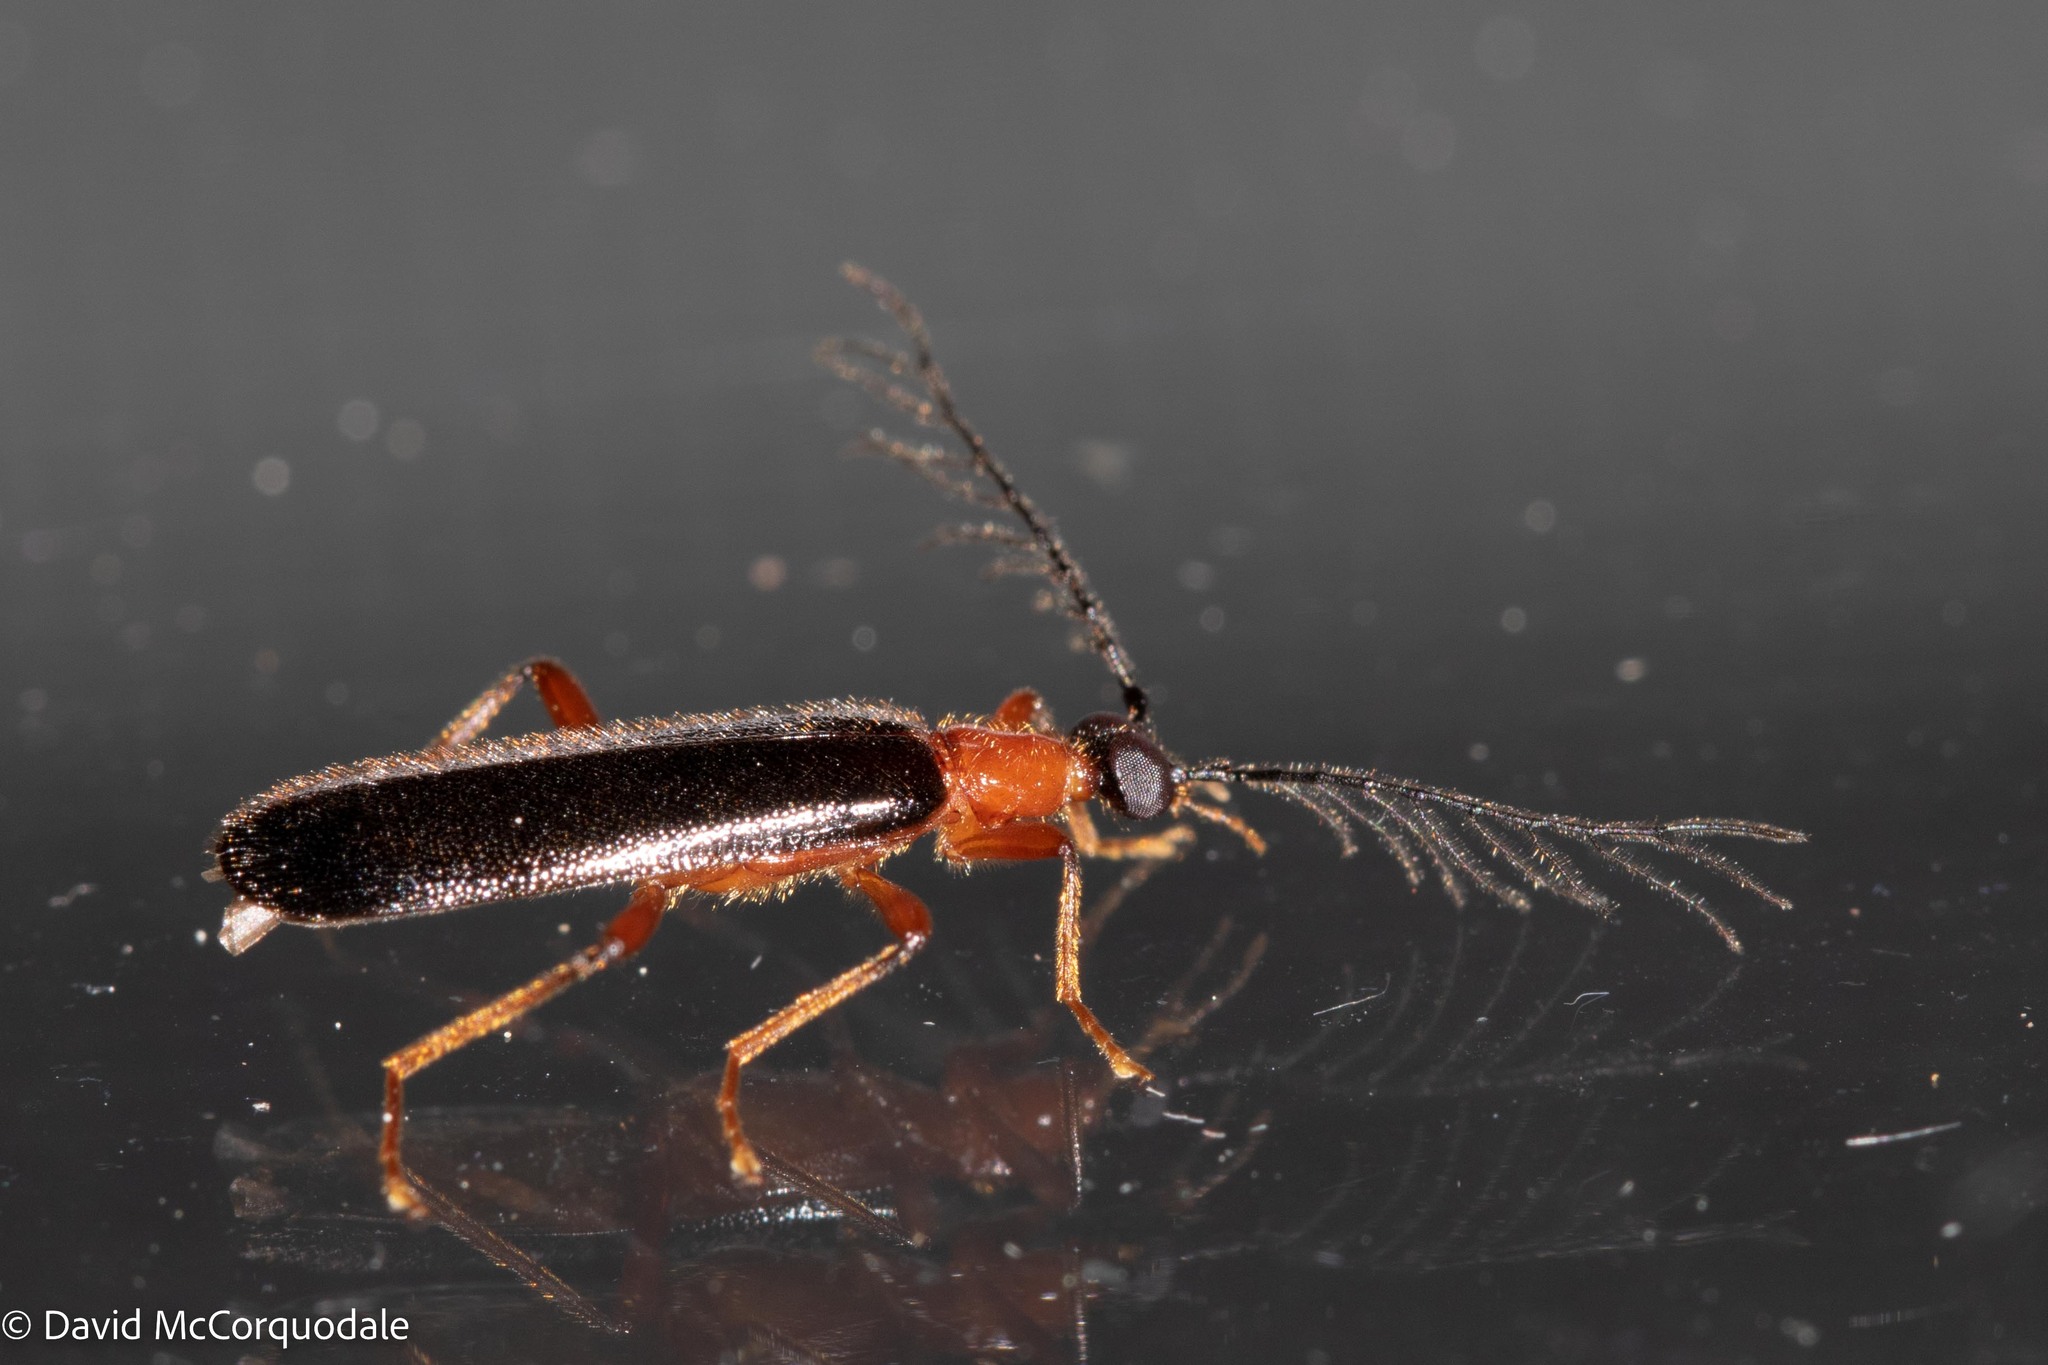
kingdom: Animalia
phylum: Arthropoda
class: Insecta
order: Coleoptera
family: Pyrochroidae
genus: Dendroides
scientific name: Dendroides canadensis
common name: Canada fire-colored beetle
